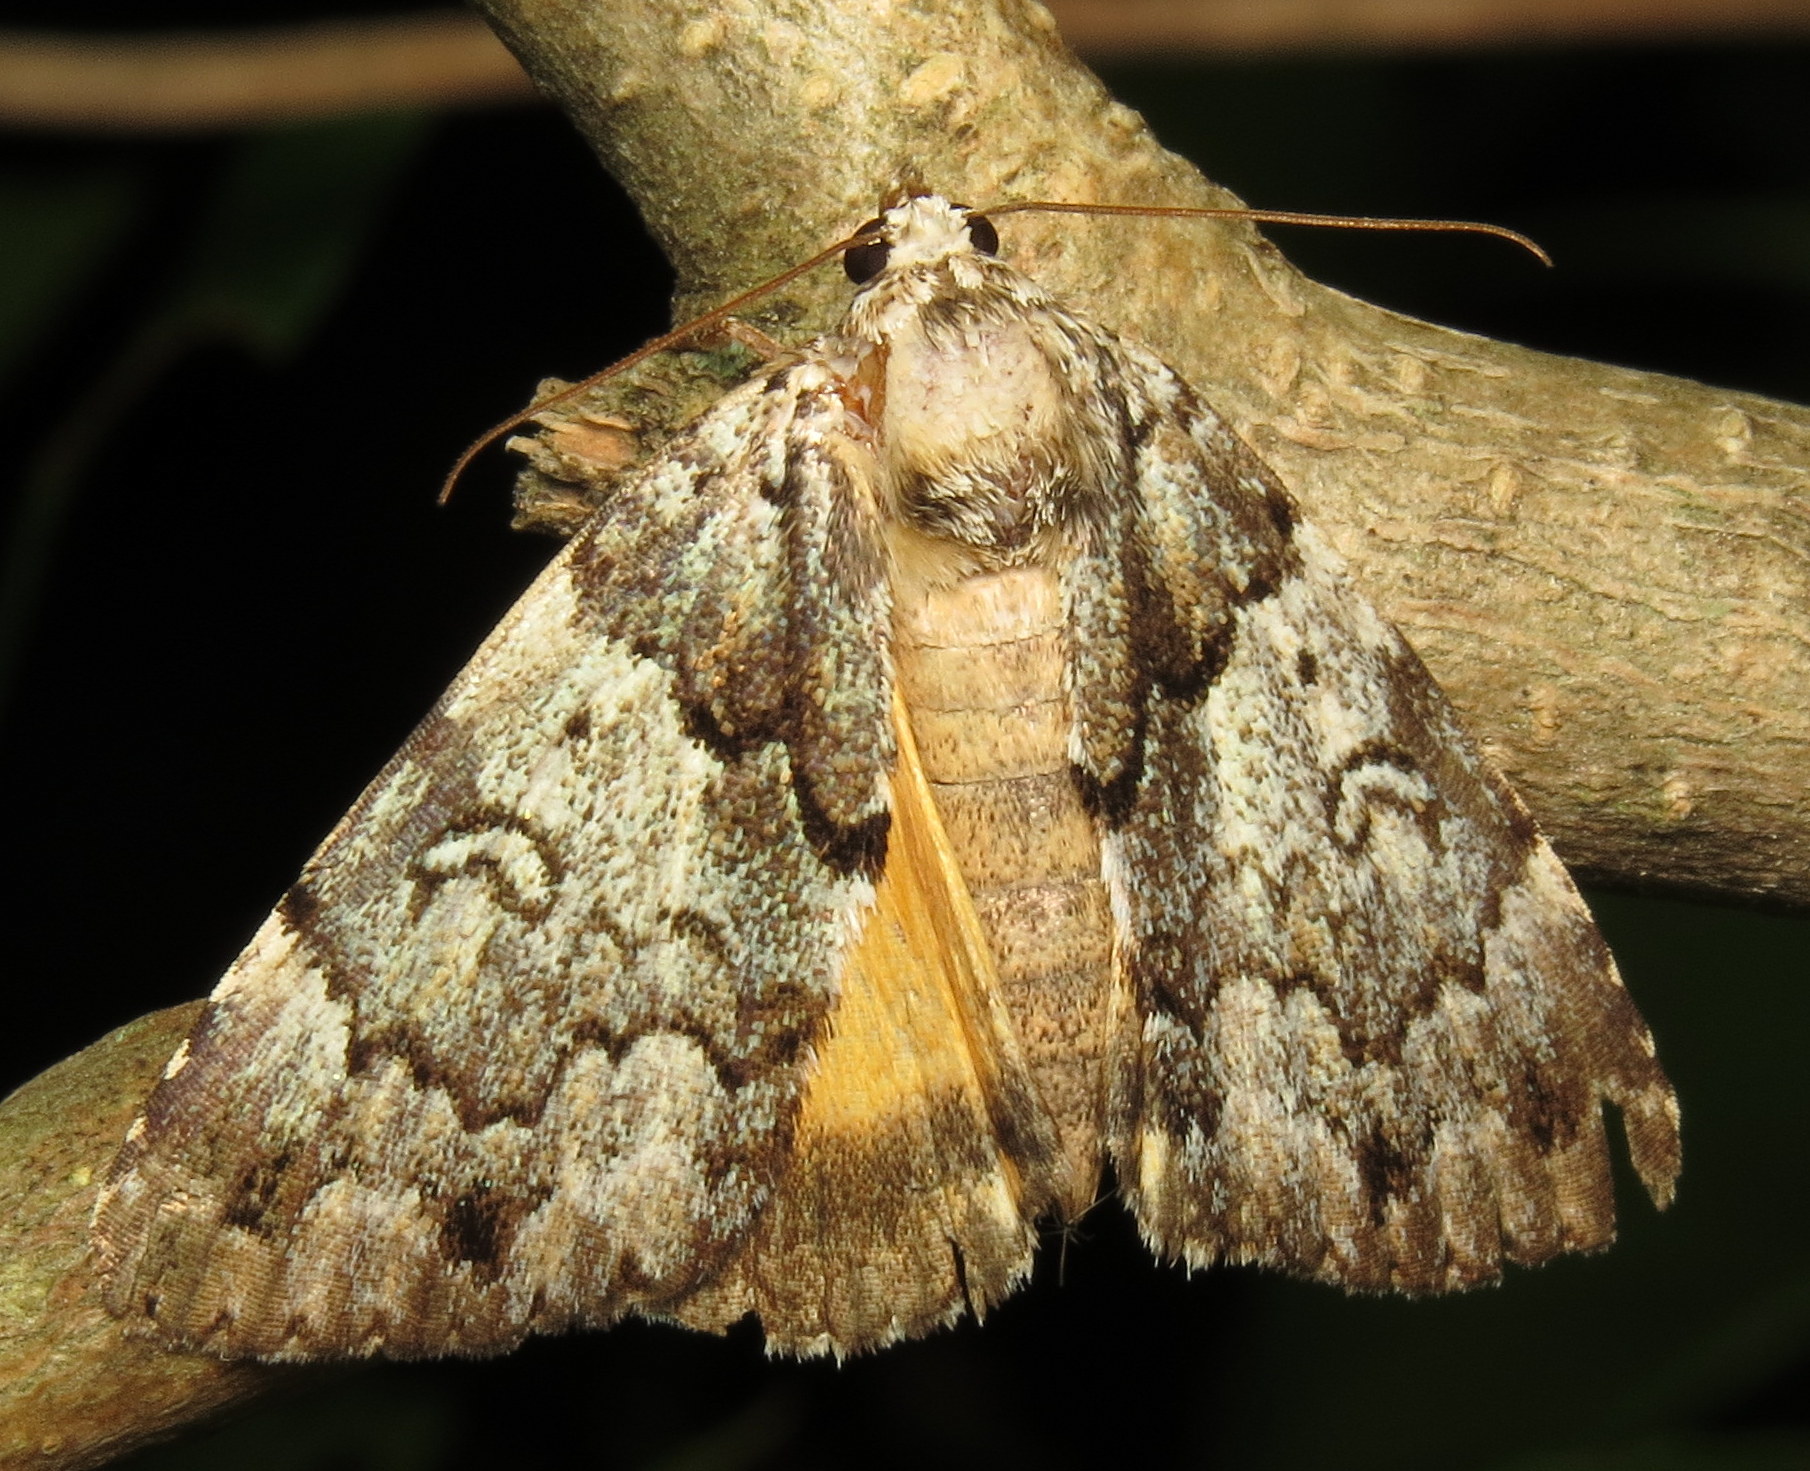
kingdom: Animalia
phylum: Arthropoda
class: Insecta
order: Lepidoptera
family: Erebidae
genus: Allotria
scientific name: Allotria elonympha
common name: False underwing
